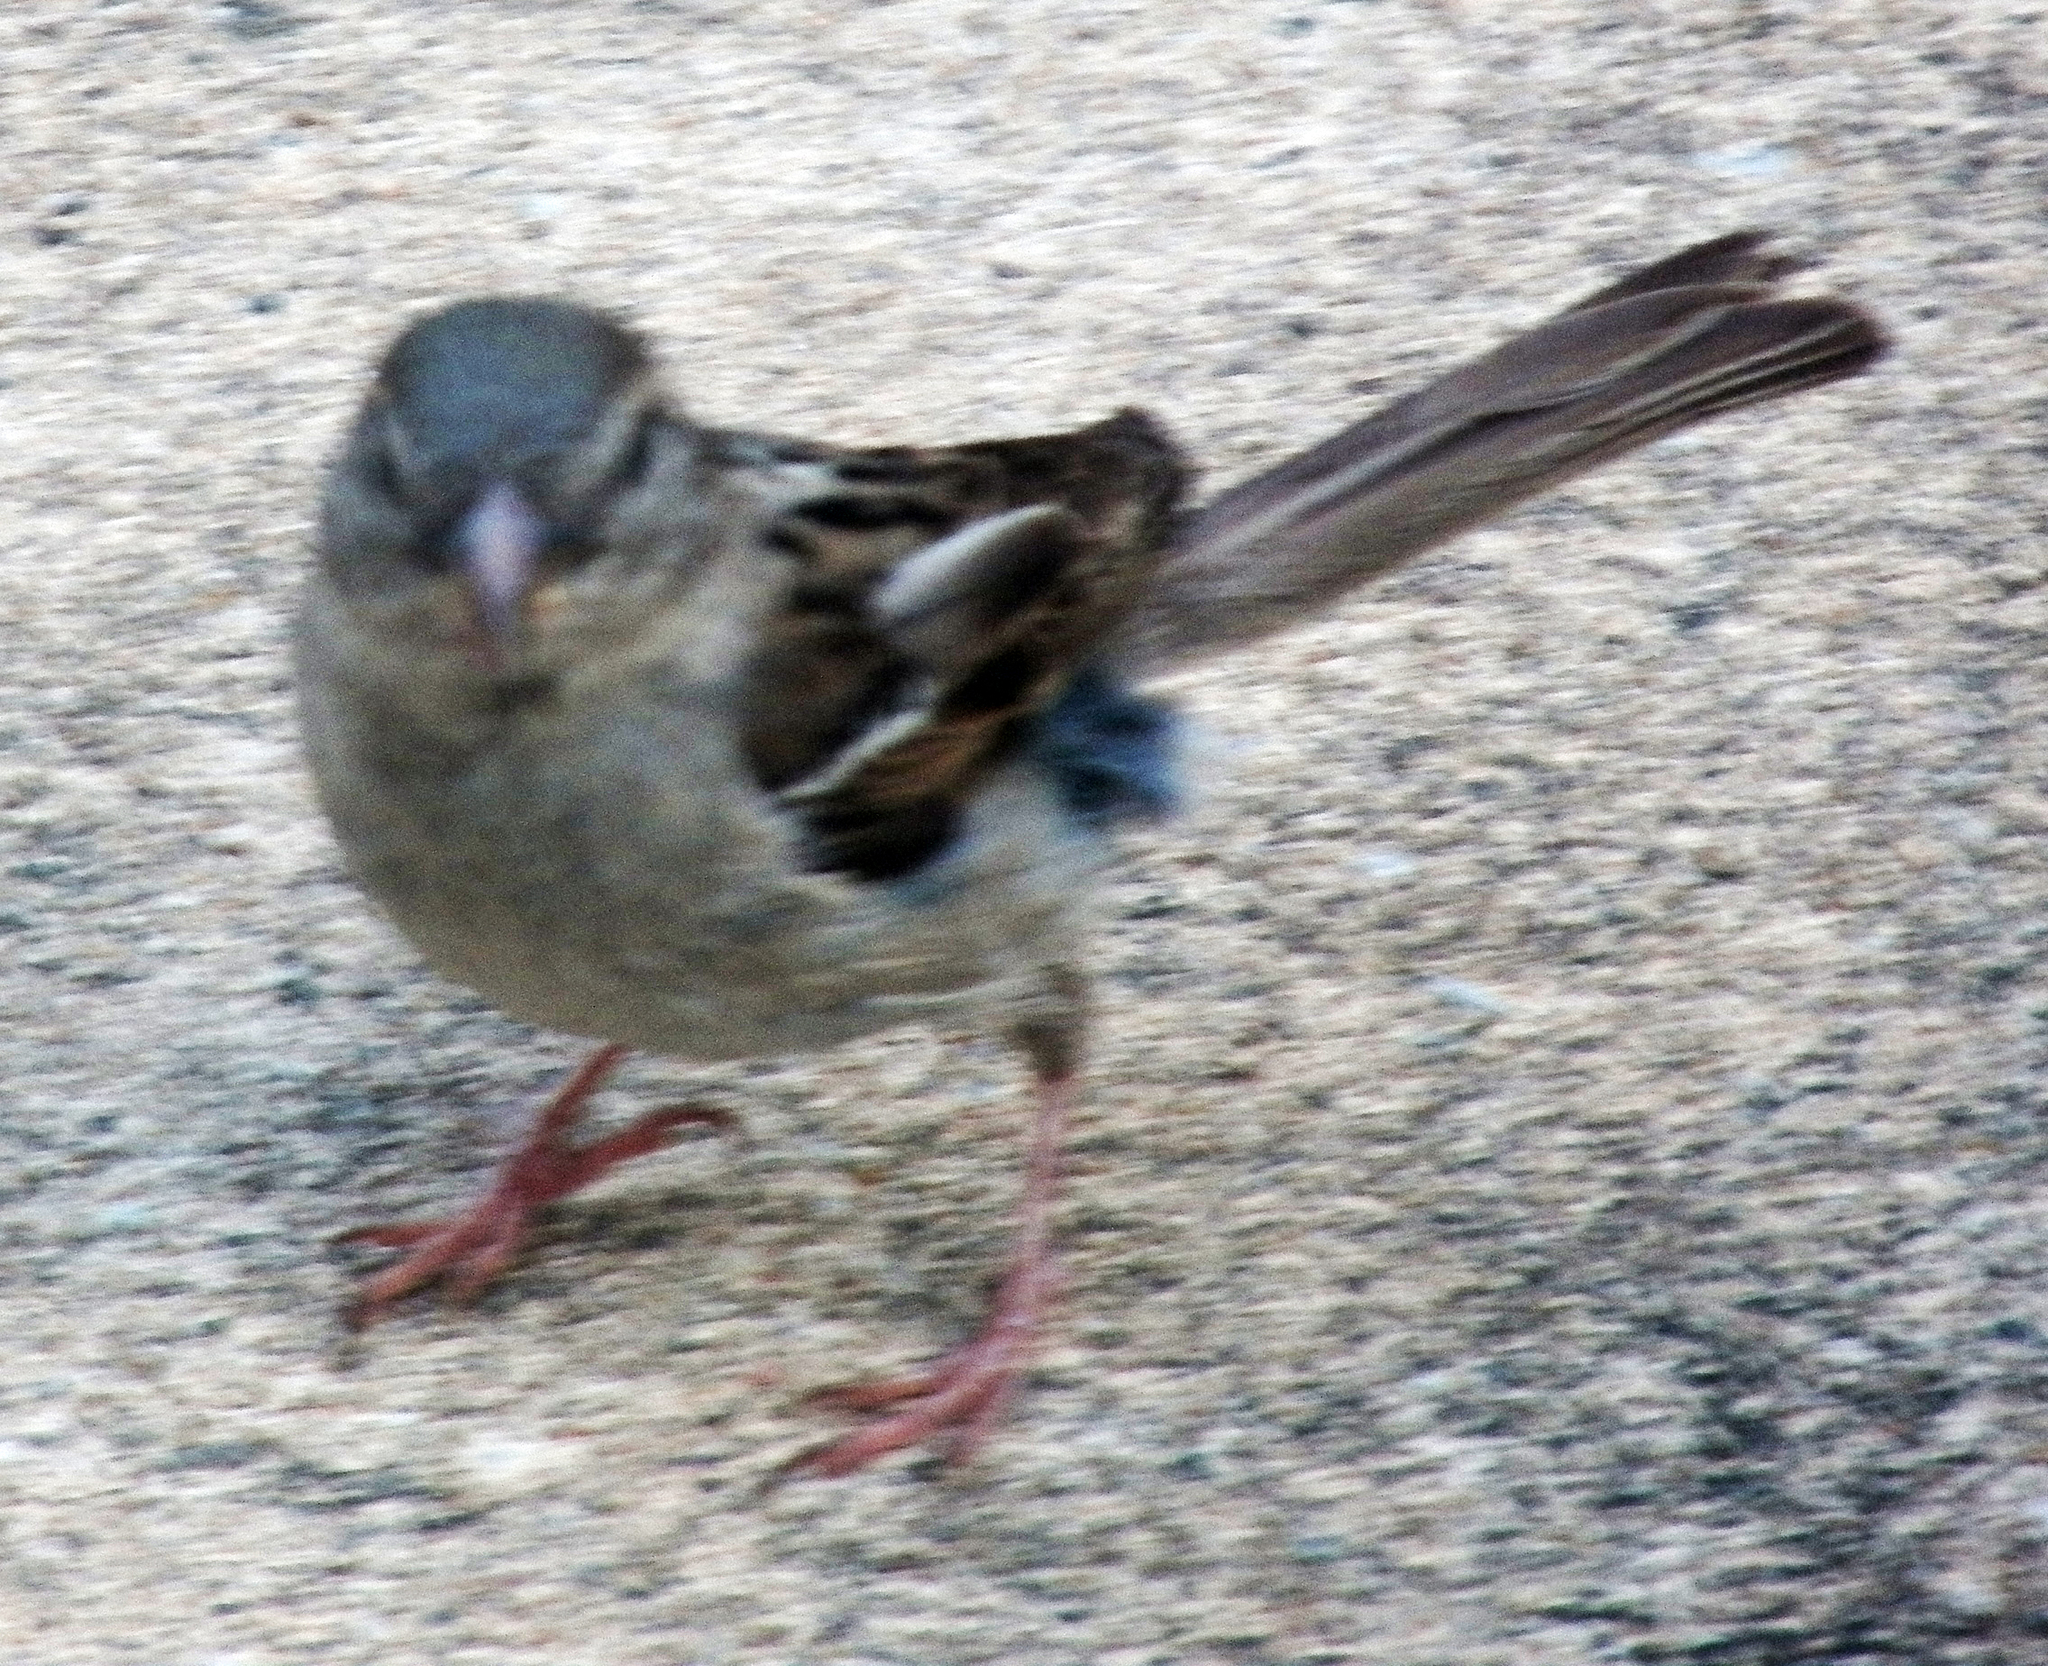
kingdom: Animalia
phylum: Chordata
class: Aves
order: Passeriformes
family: Passeridae
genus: Passer
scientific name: Passer domesticus
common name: House sparrow
